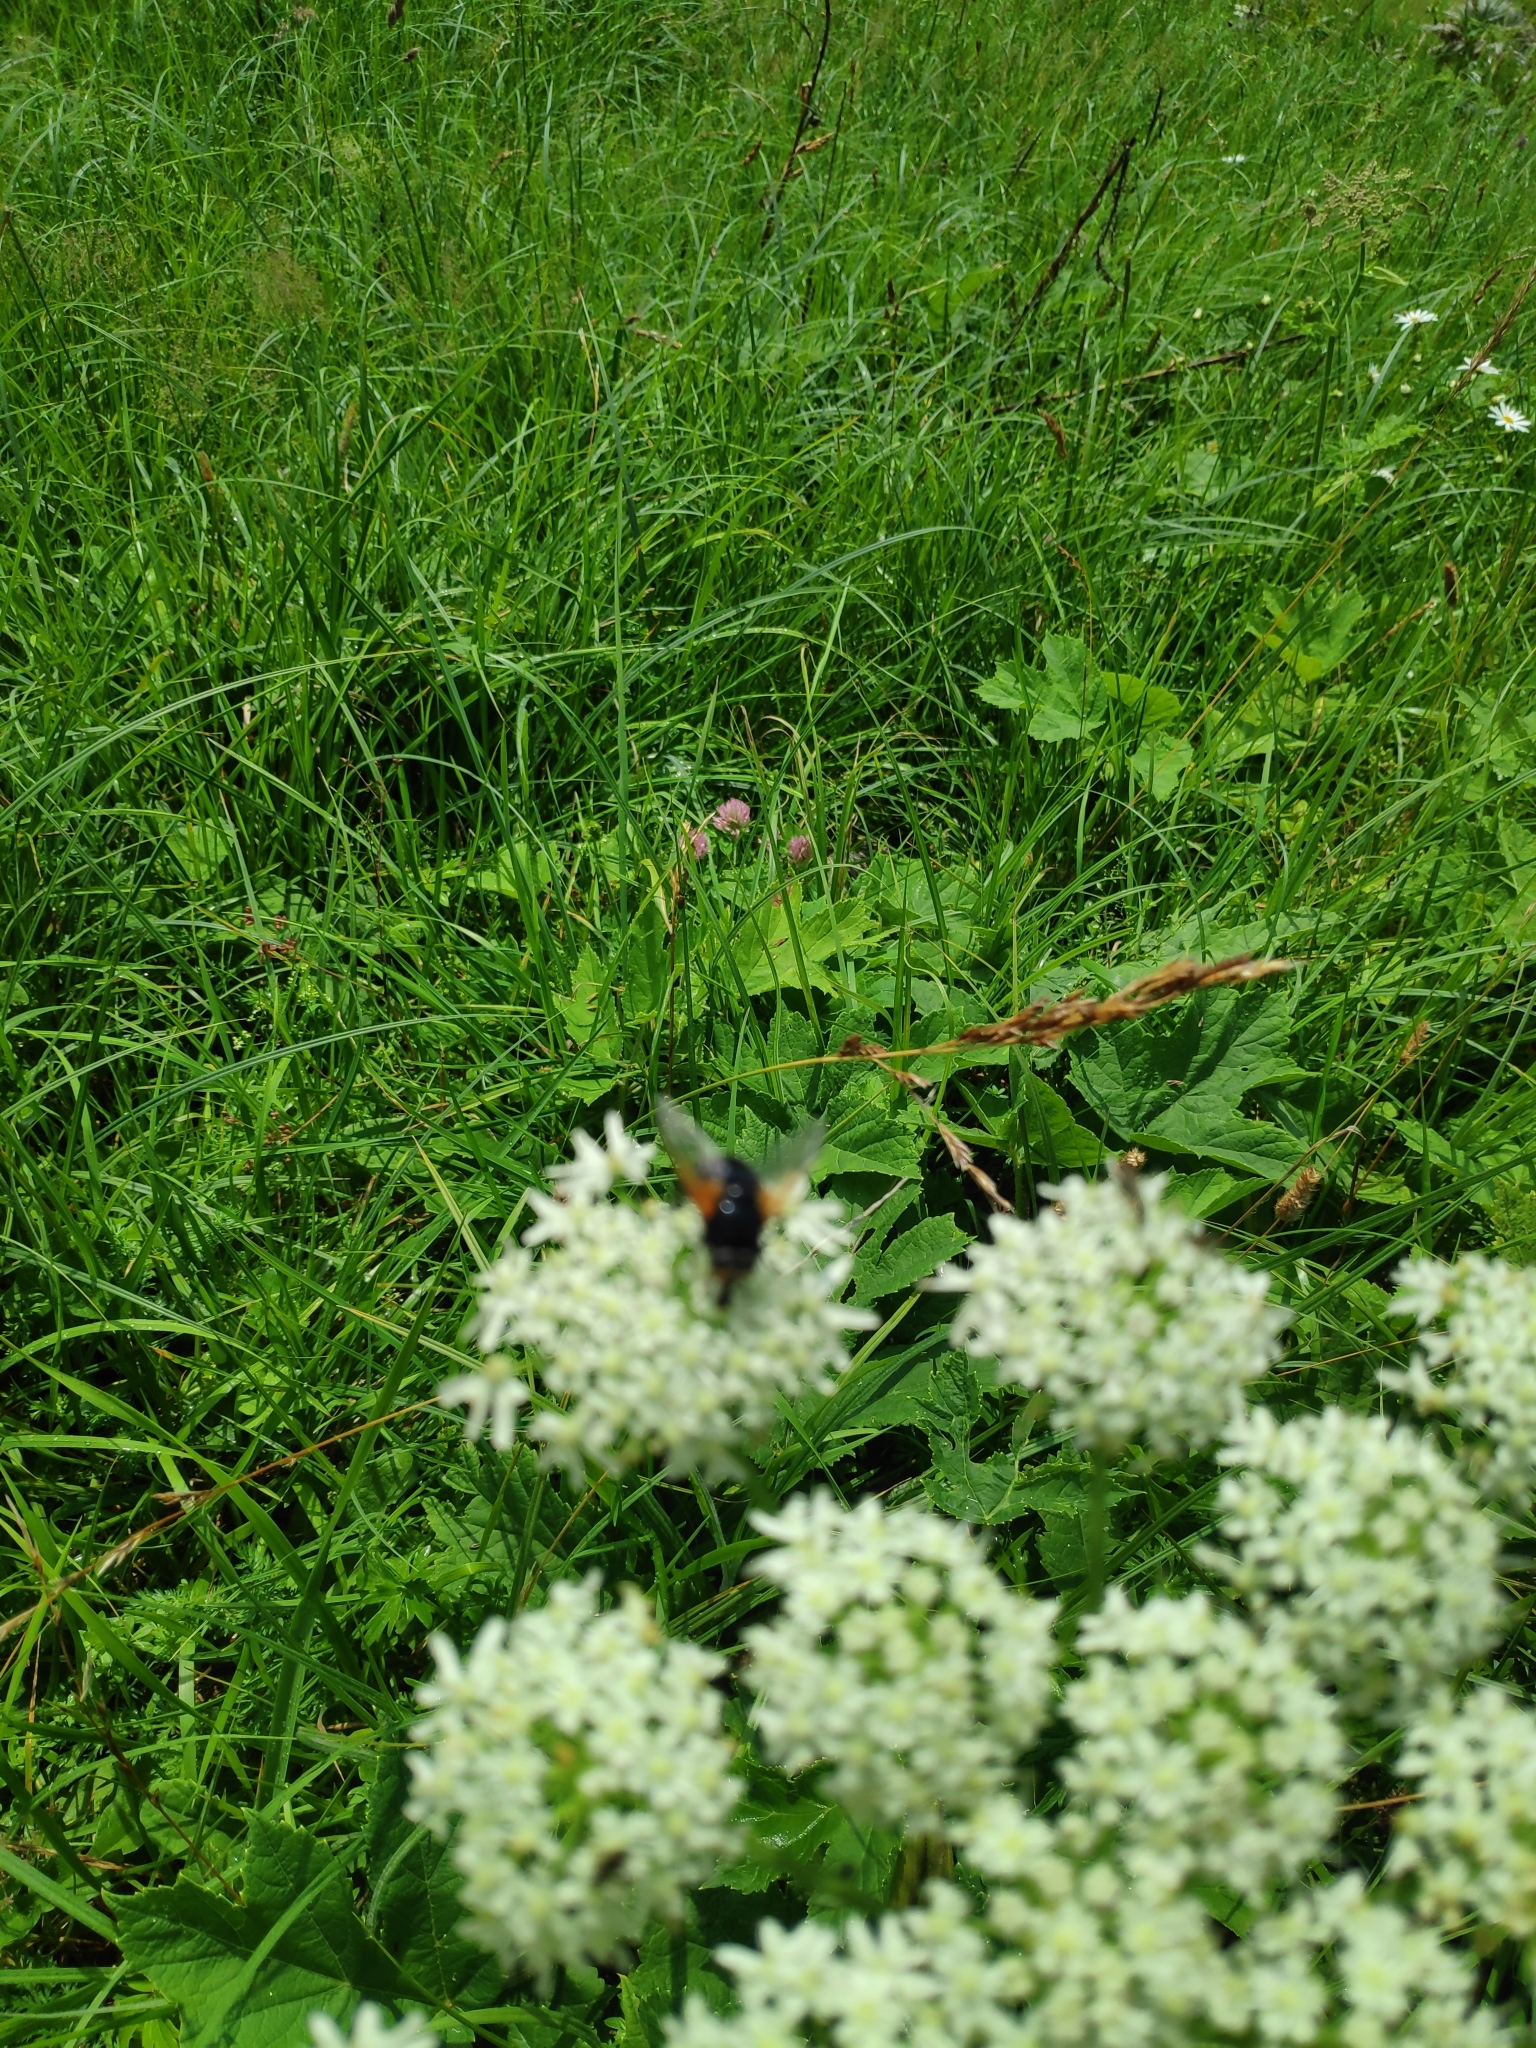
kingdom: Animalia
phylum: Arthropoda
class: Insecta
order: Diptera
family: Muscidae
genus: Mesembrina
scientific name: Mesembrina meridiana
